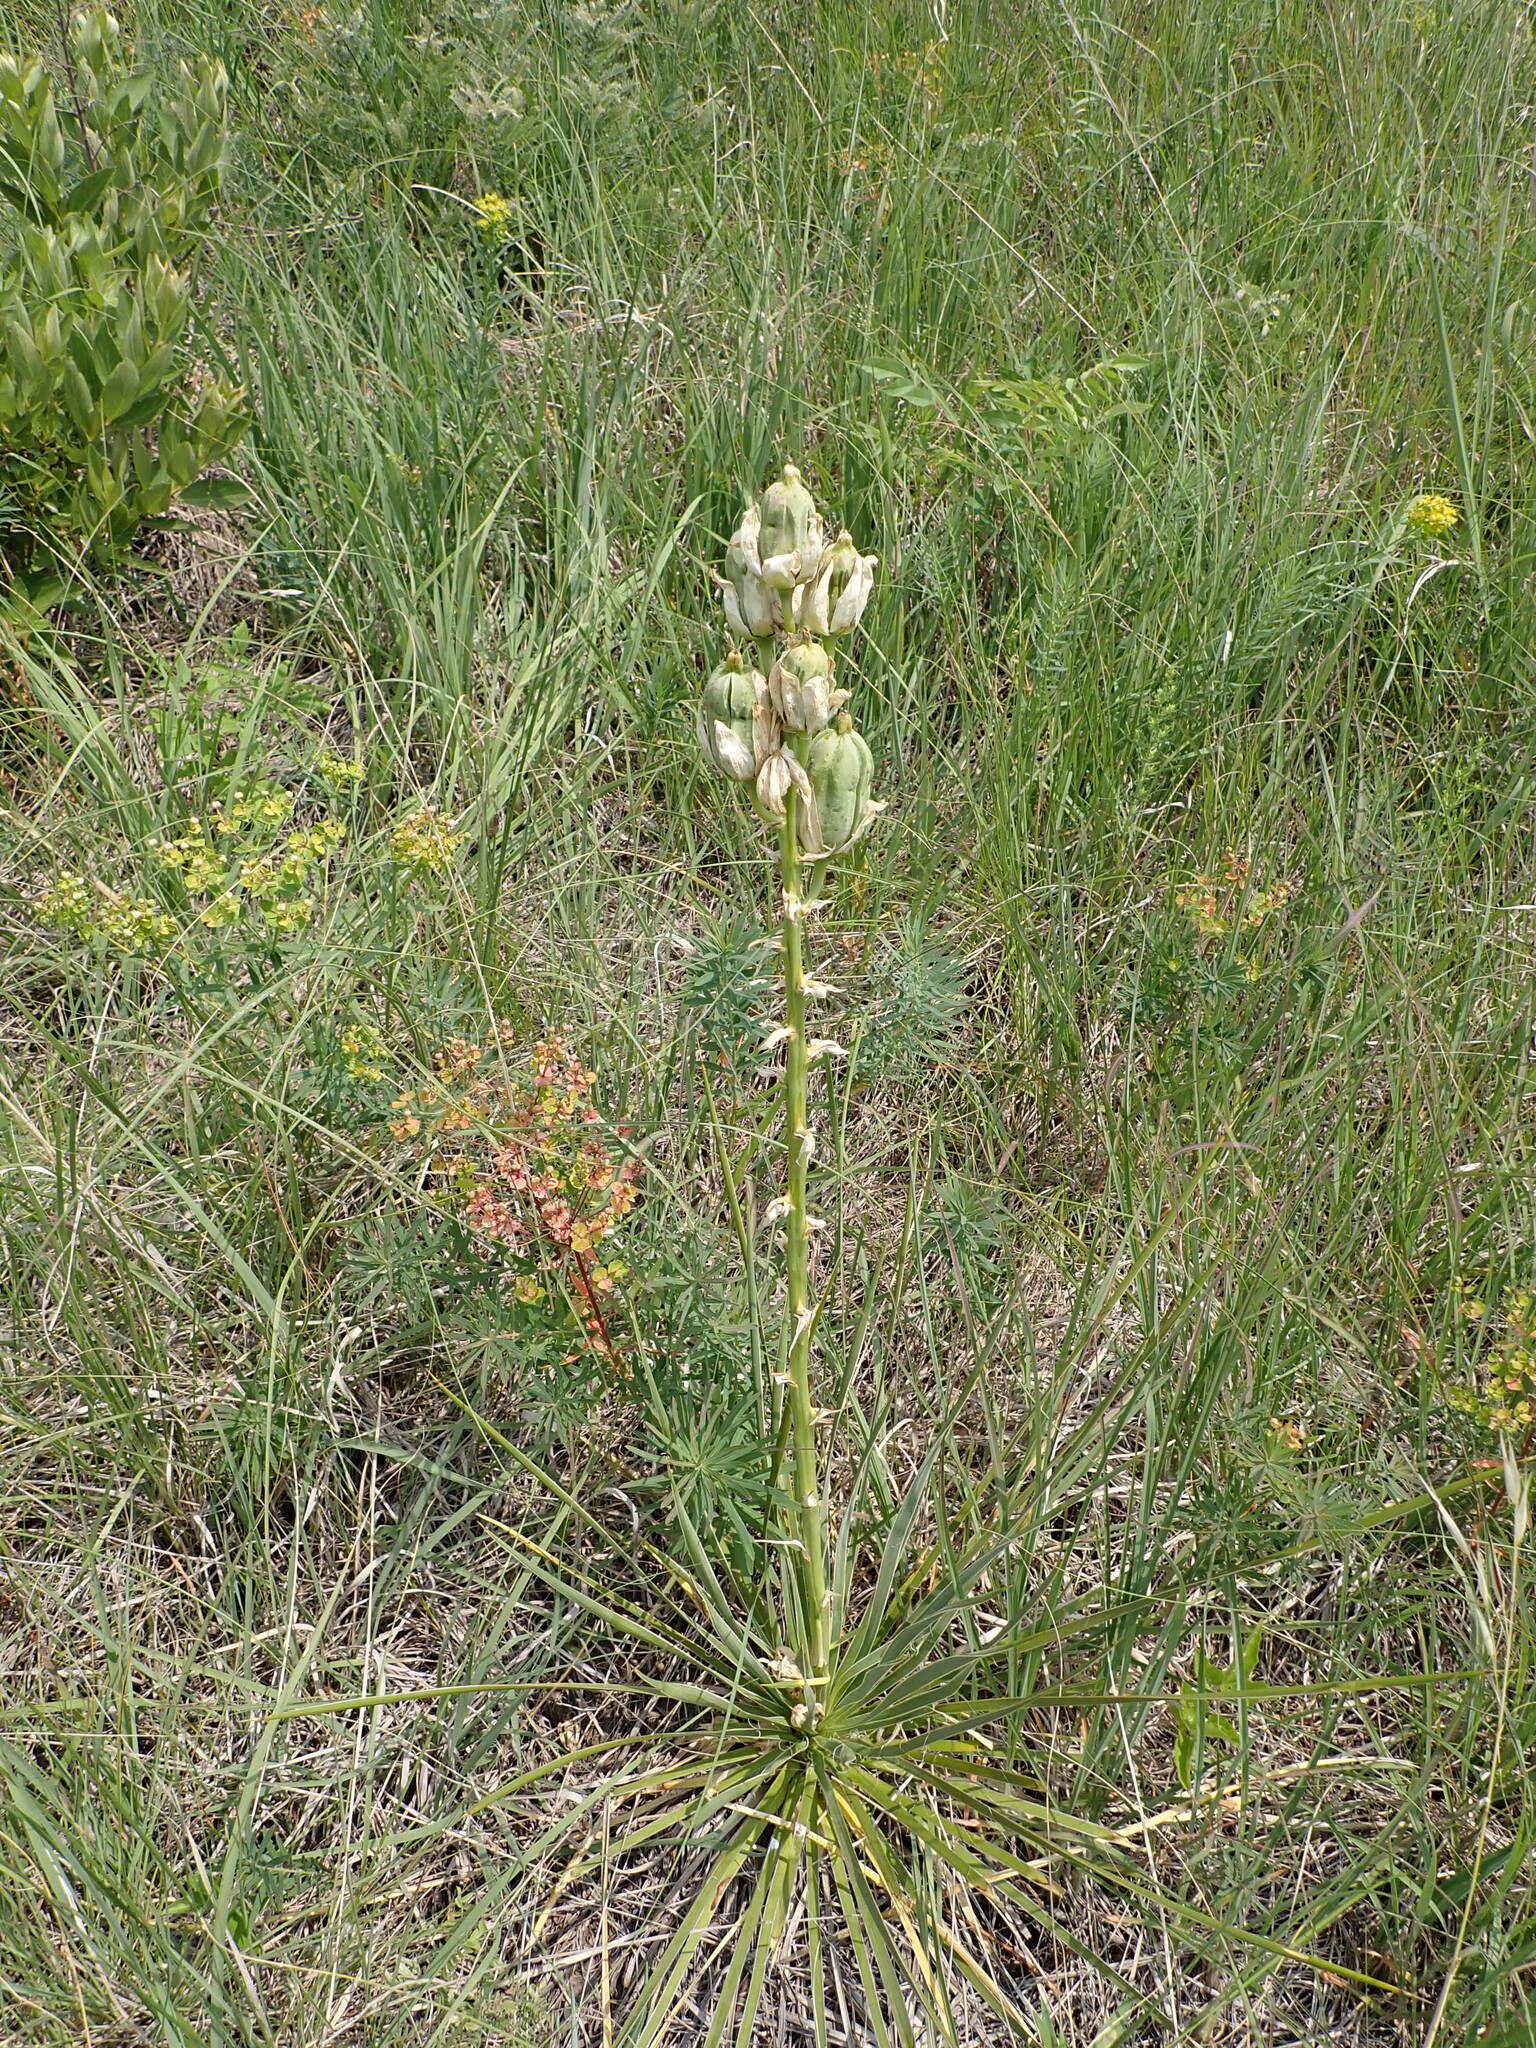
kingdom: Plantae
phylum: Tracheophyta
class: Liliopsida
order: Asparagales
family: Asparagaceae
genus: Yucca
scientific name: Yucca glauca
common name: Great plains yucca
